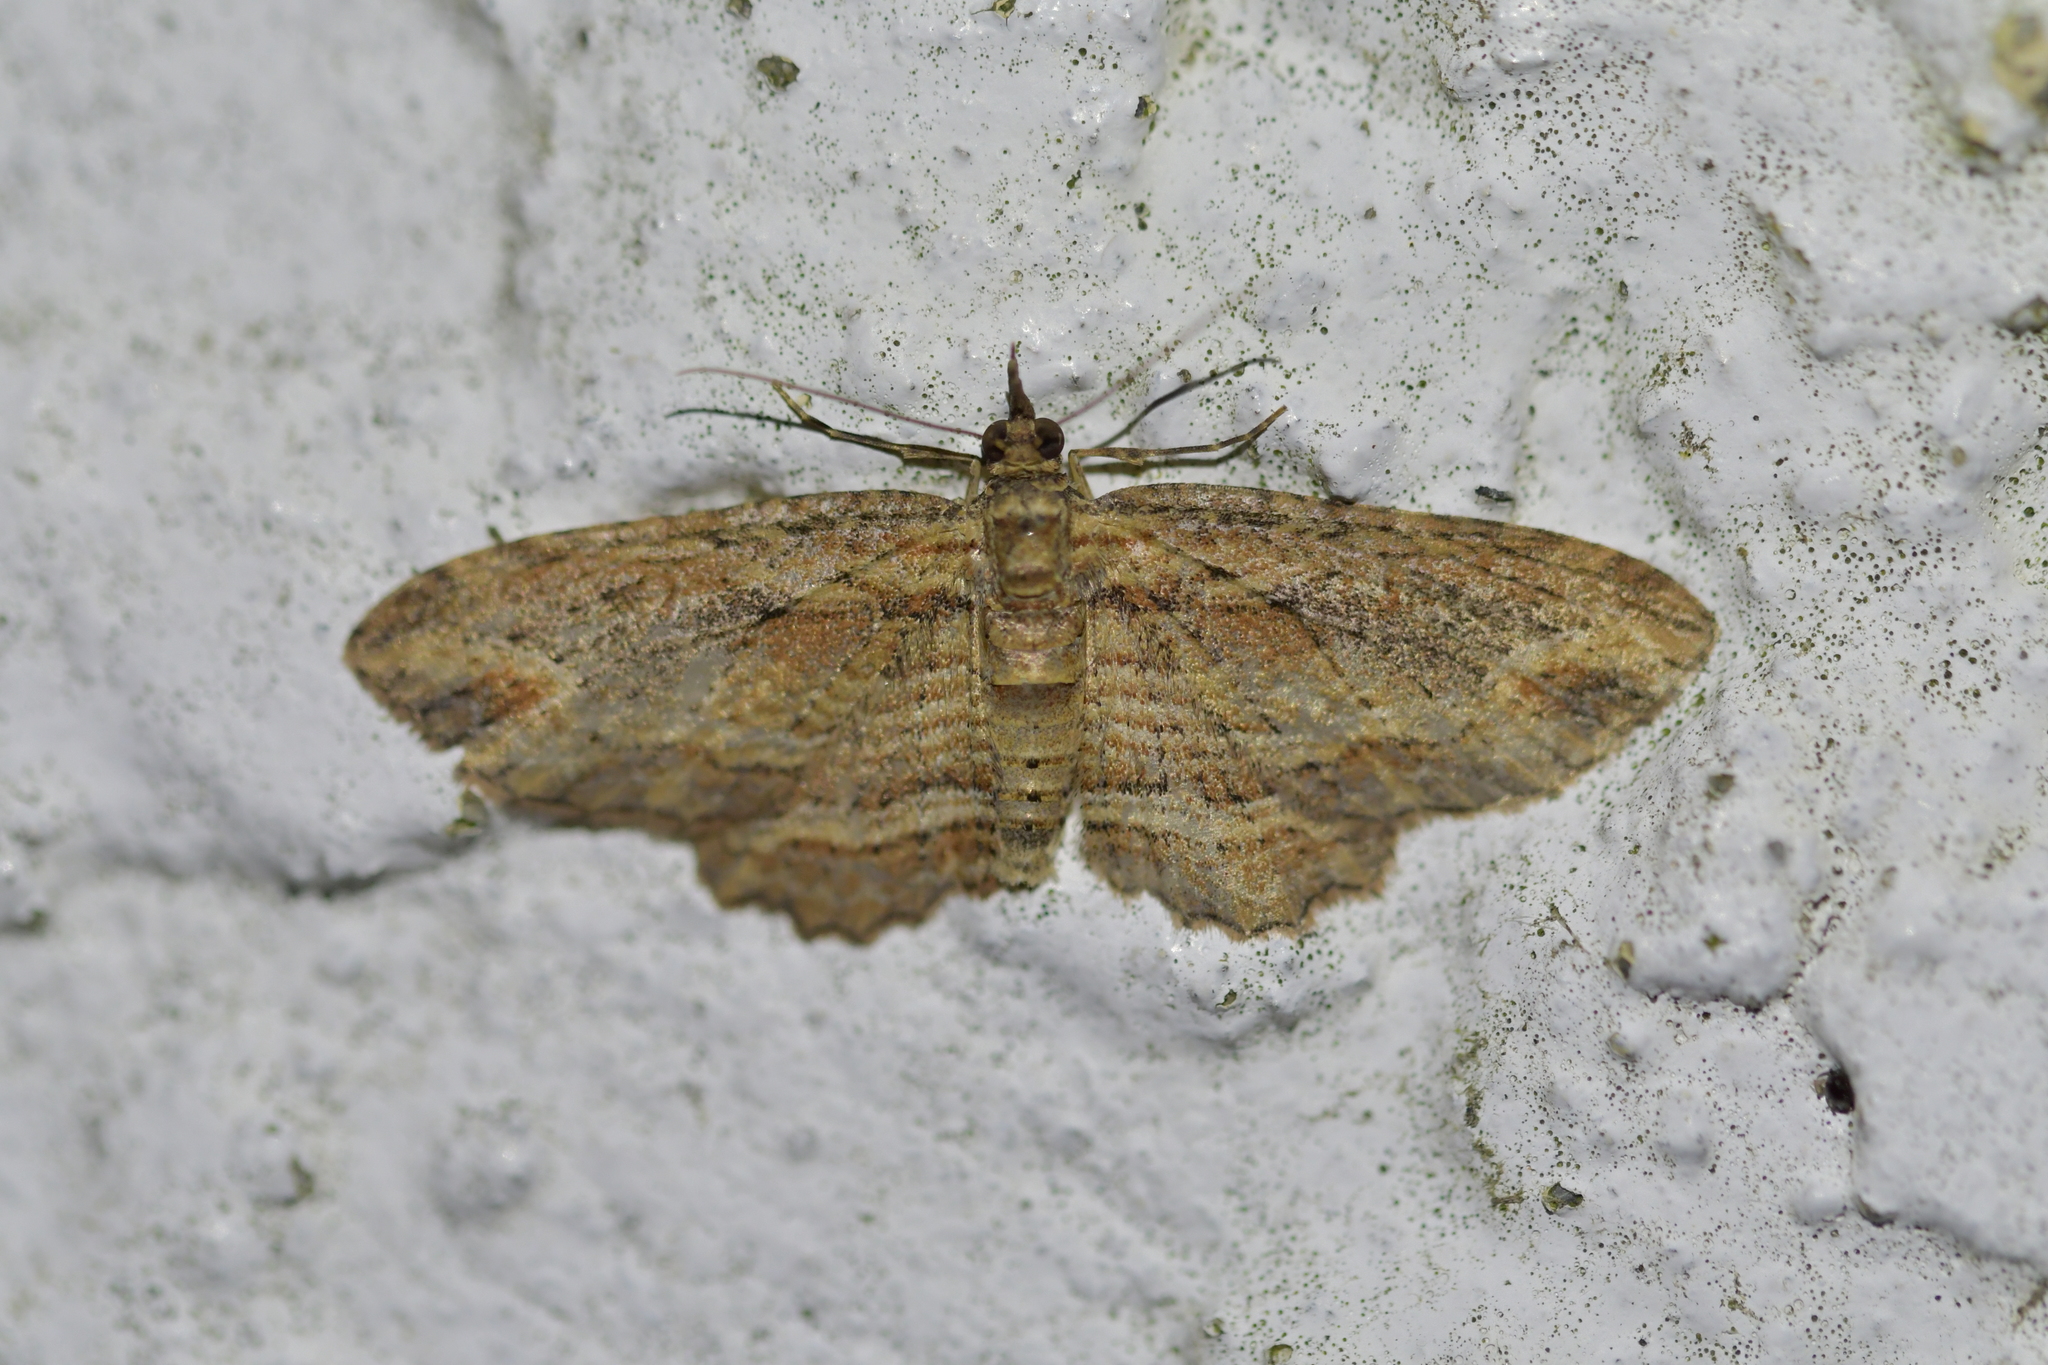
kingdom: Animalia
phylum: Arthropoda
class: Insecta
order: Lepidoptera
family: Geometridae
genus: Chloroclystis
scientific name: Chloroclystis filata
